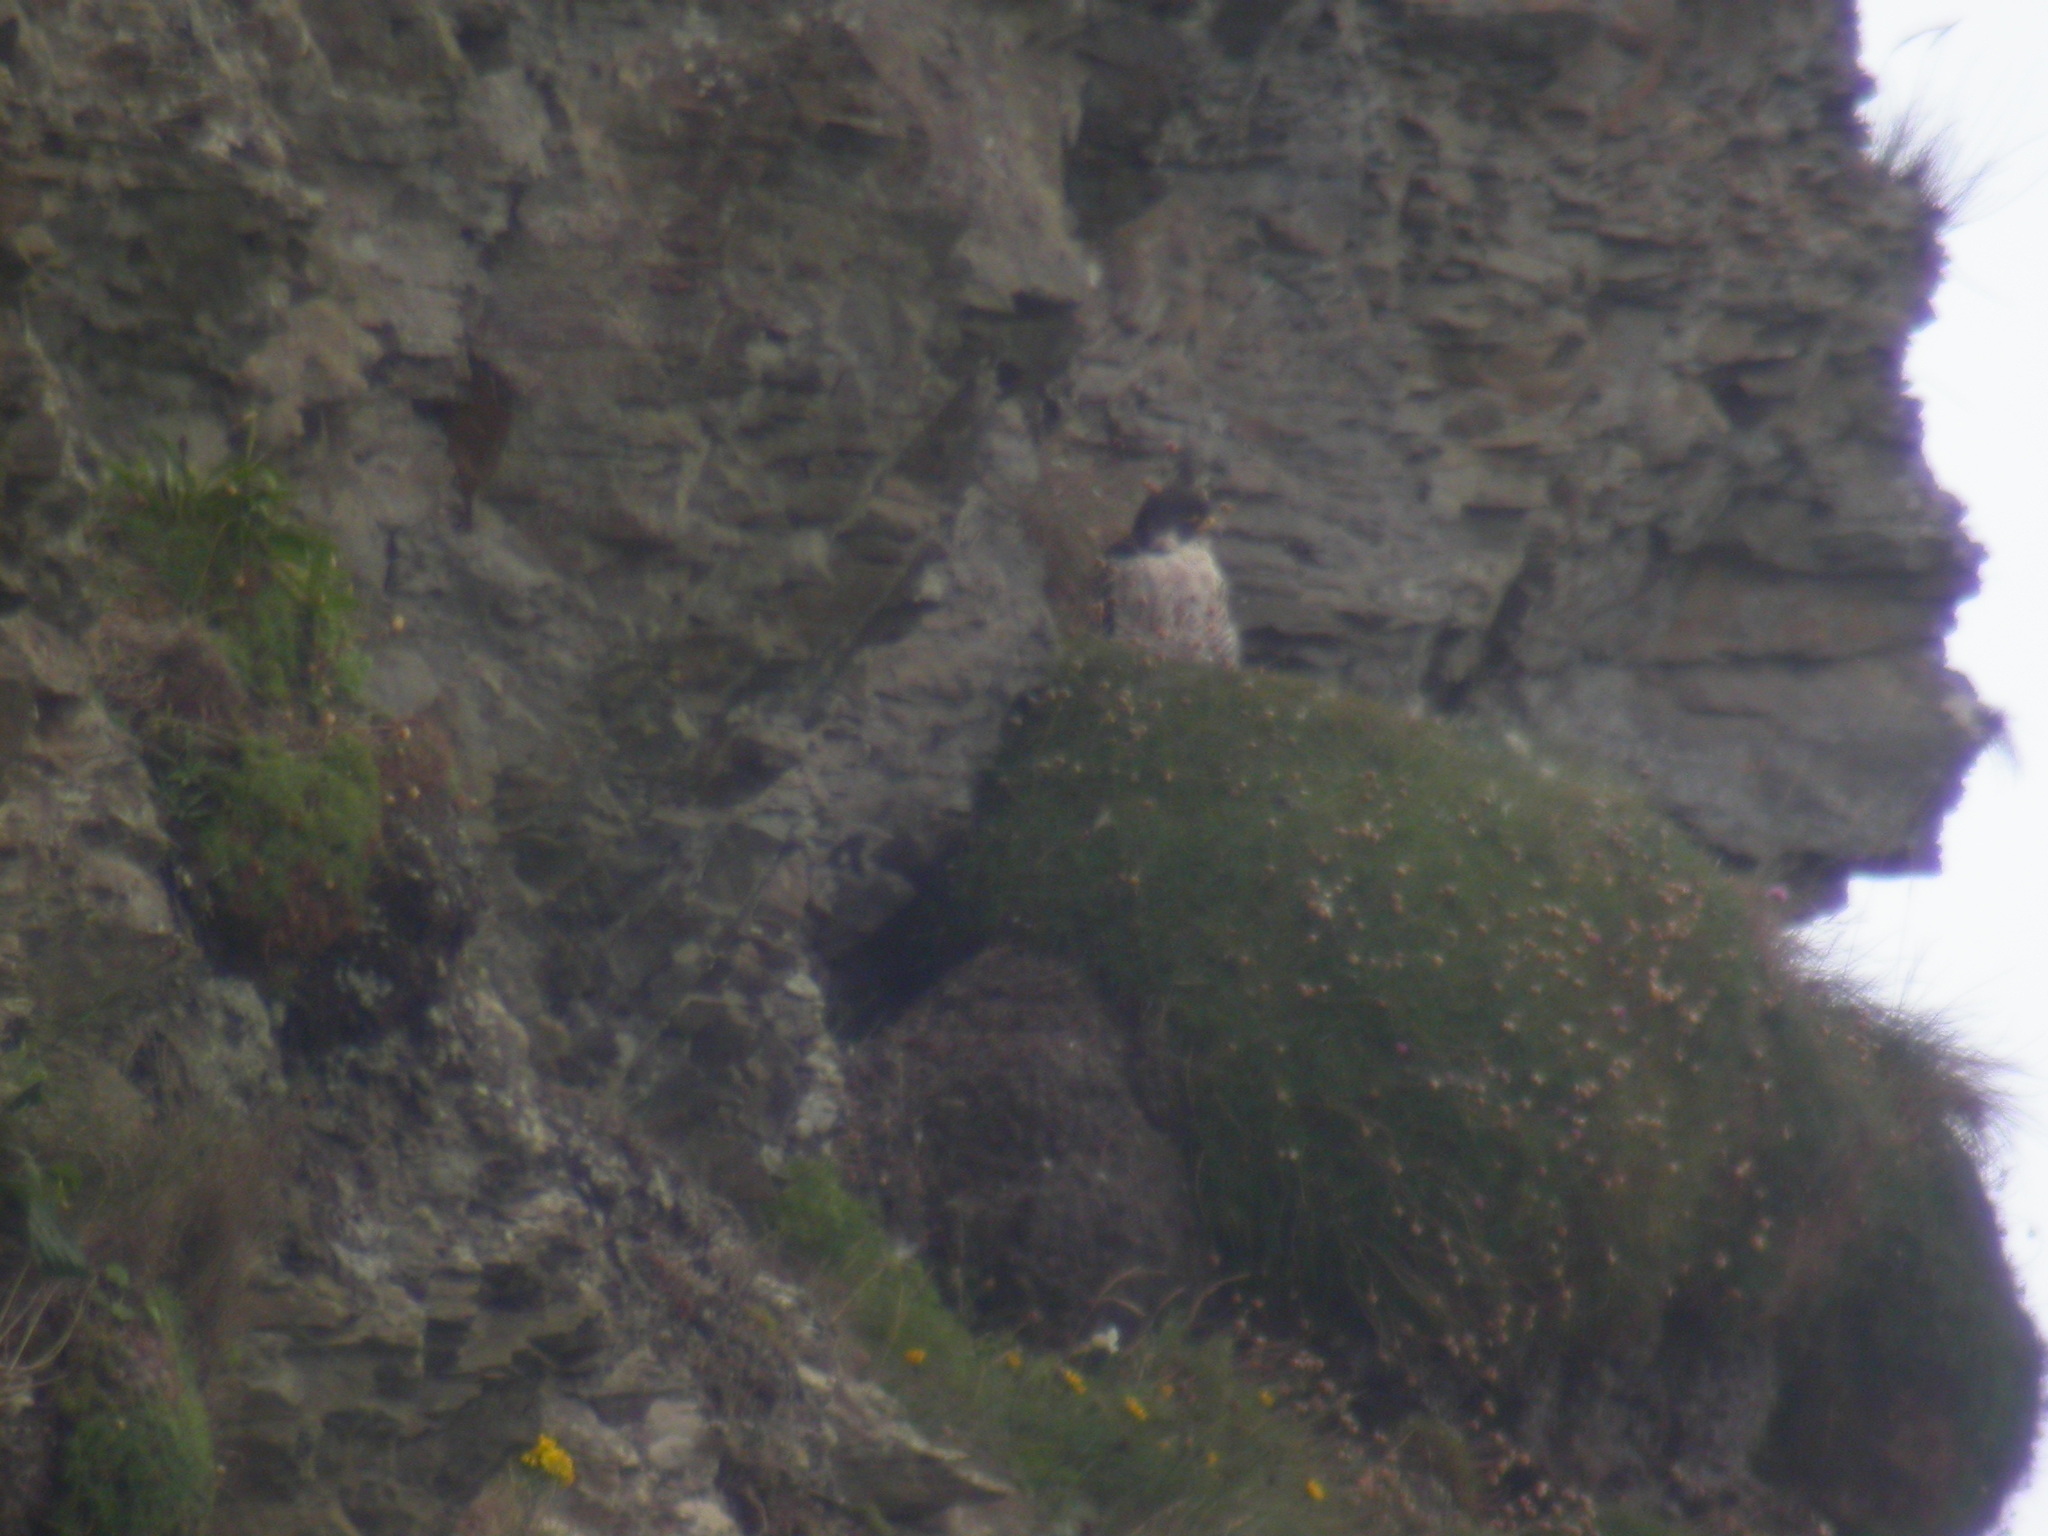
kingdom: Animalia
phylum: Chordata
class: Aves
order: Falconiformes
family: Falconidae
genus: Falco
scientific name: Falco peregrinus
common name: Peregrine falcon
